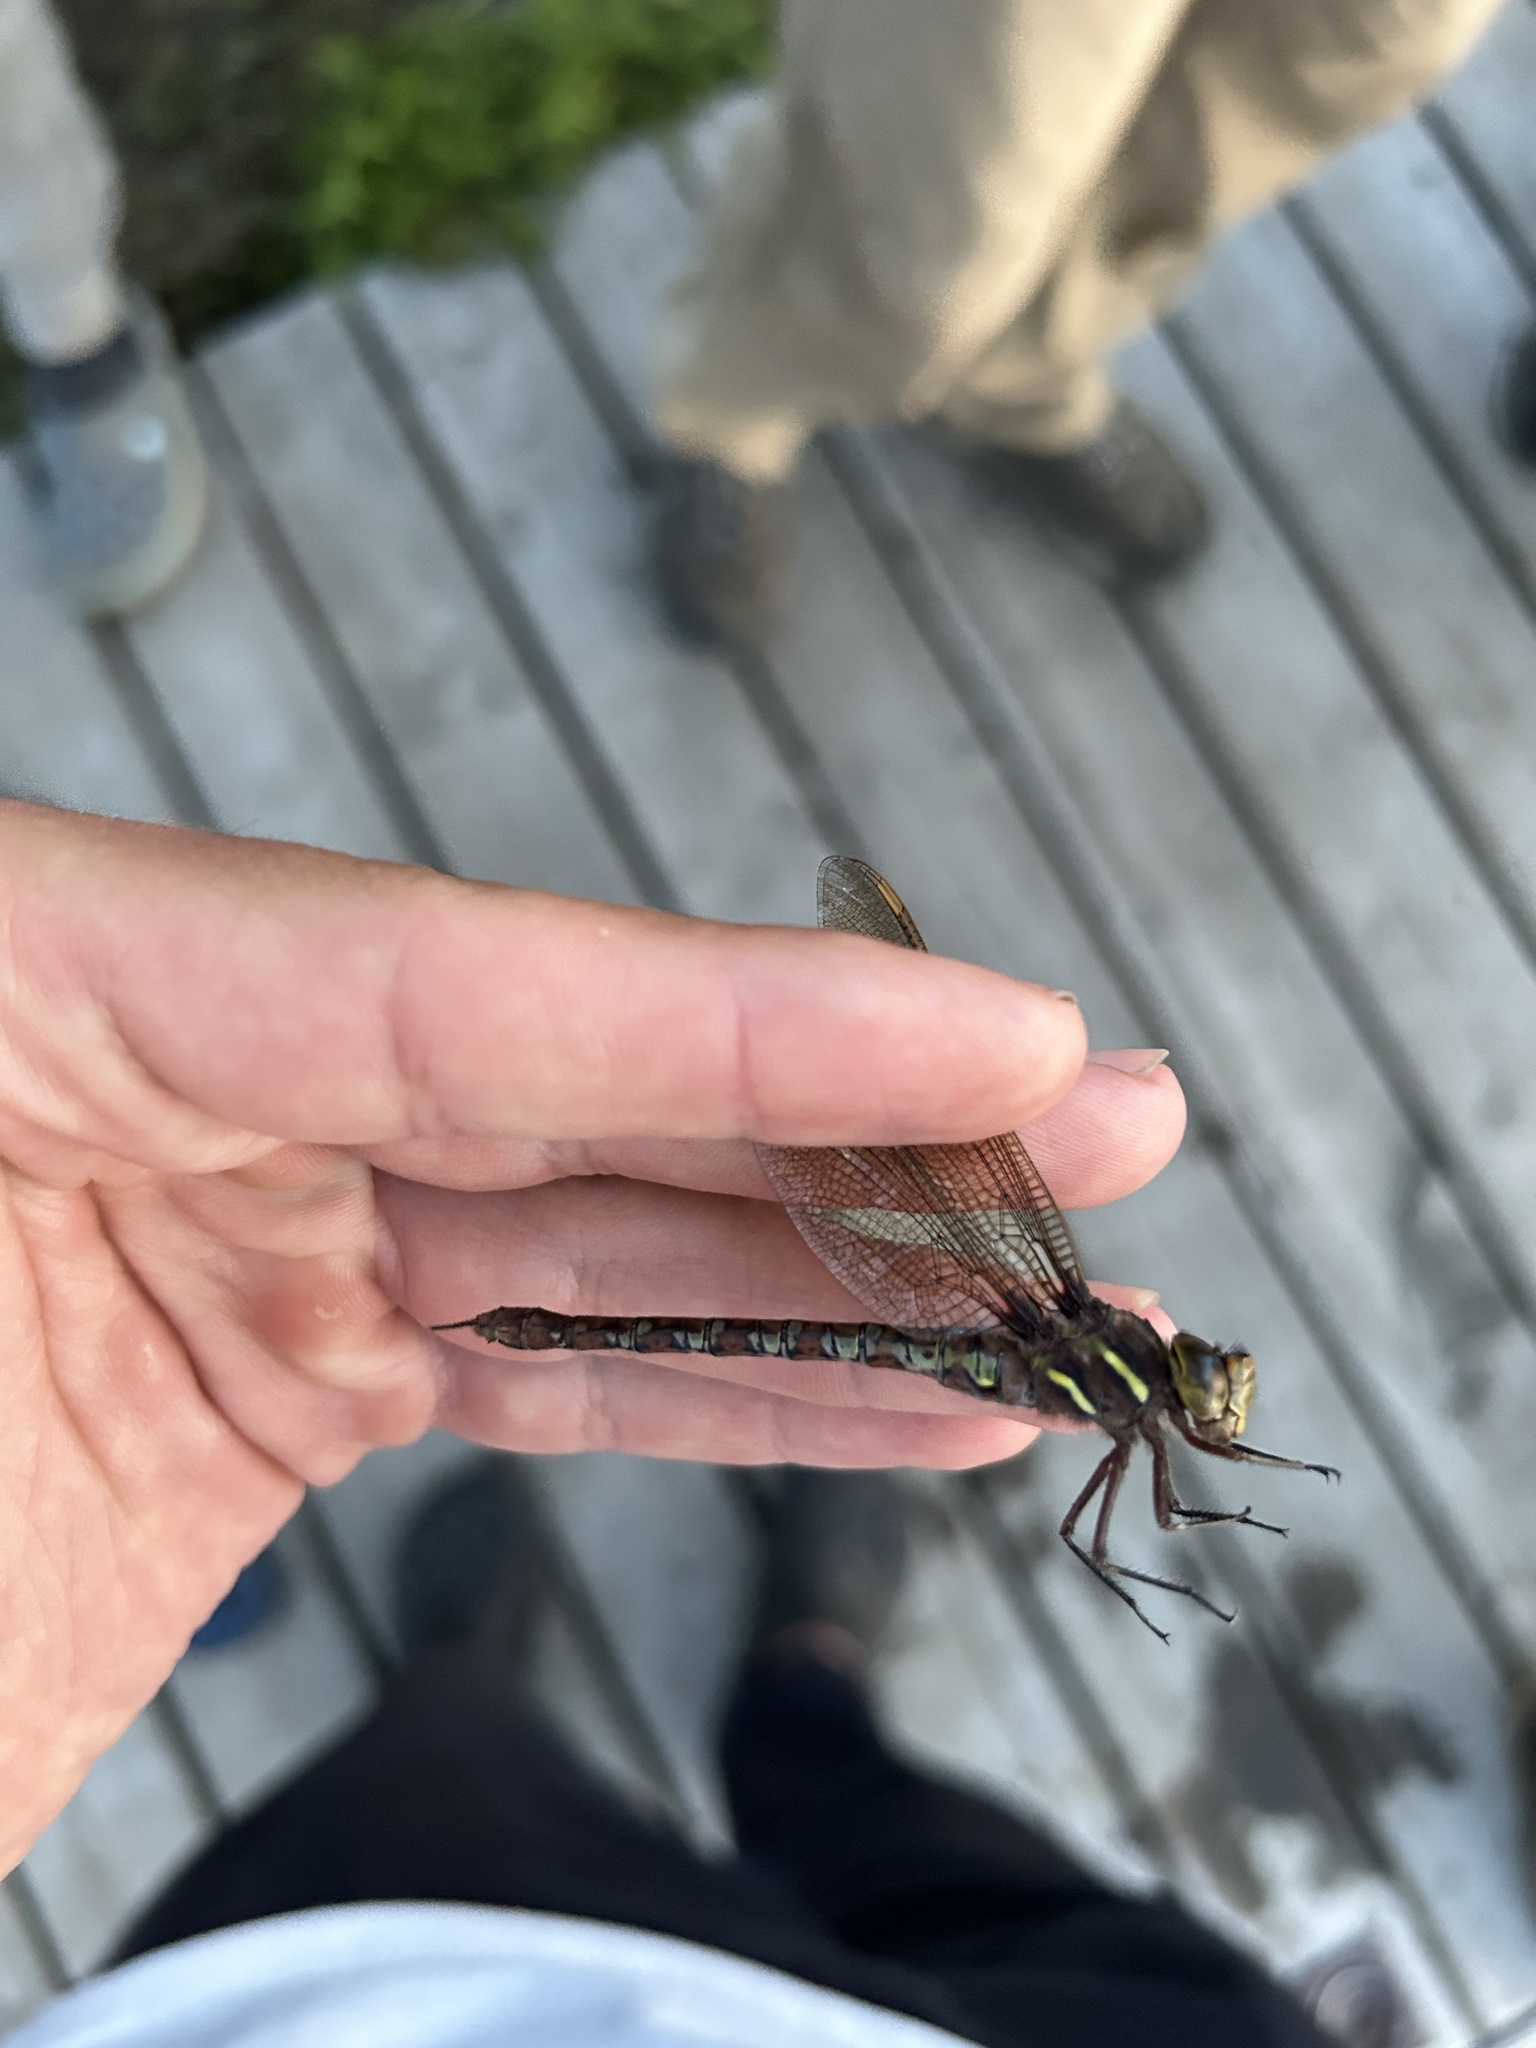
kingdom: Animalia
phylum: Arthropoda
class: Insecta
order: Odonata
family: Aeshnidae
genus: Basiaeschna
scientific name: Basiaeschna janata
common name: Springtime darner
